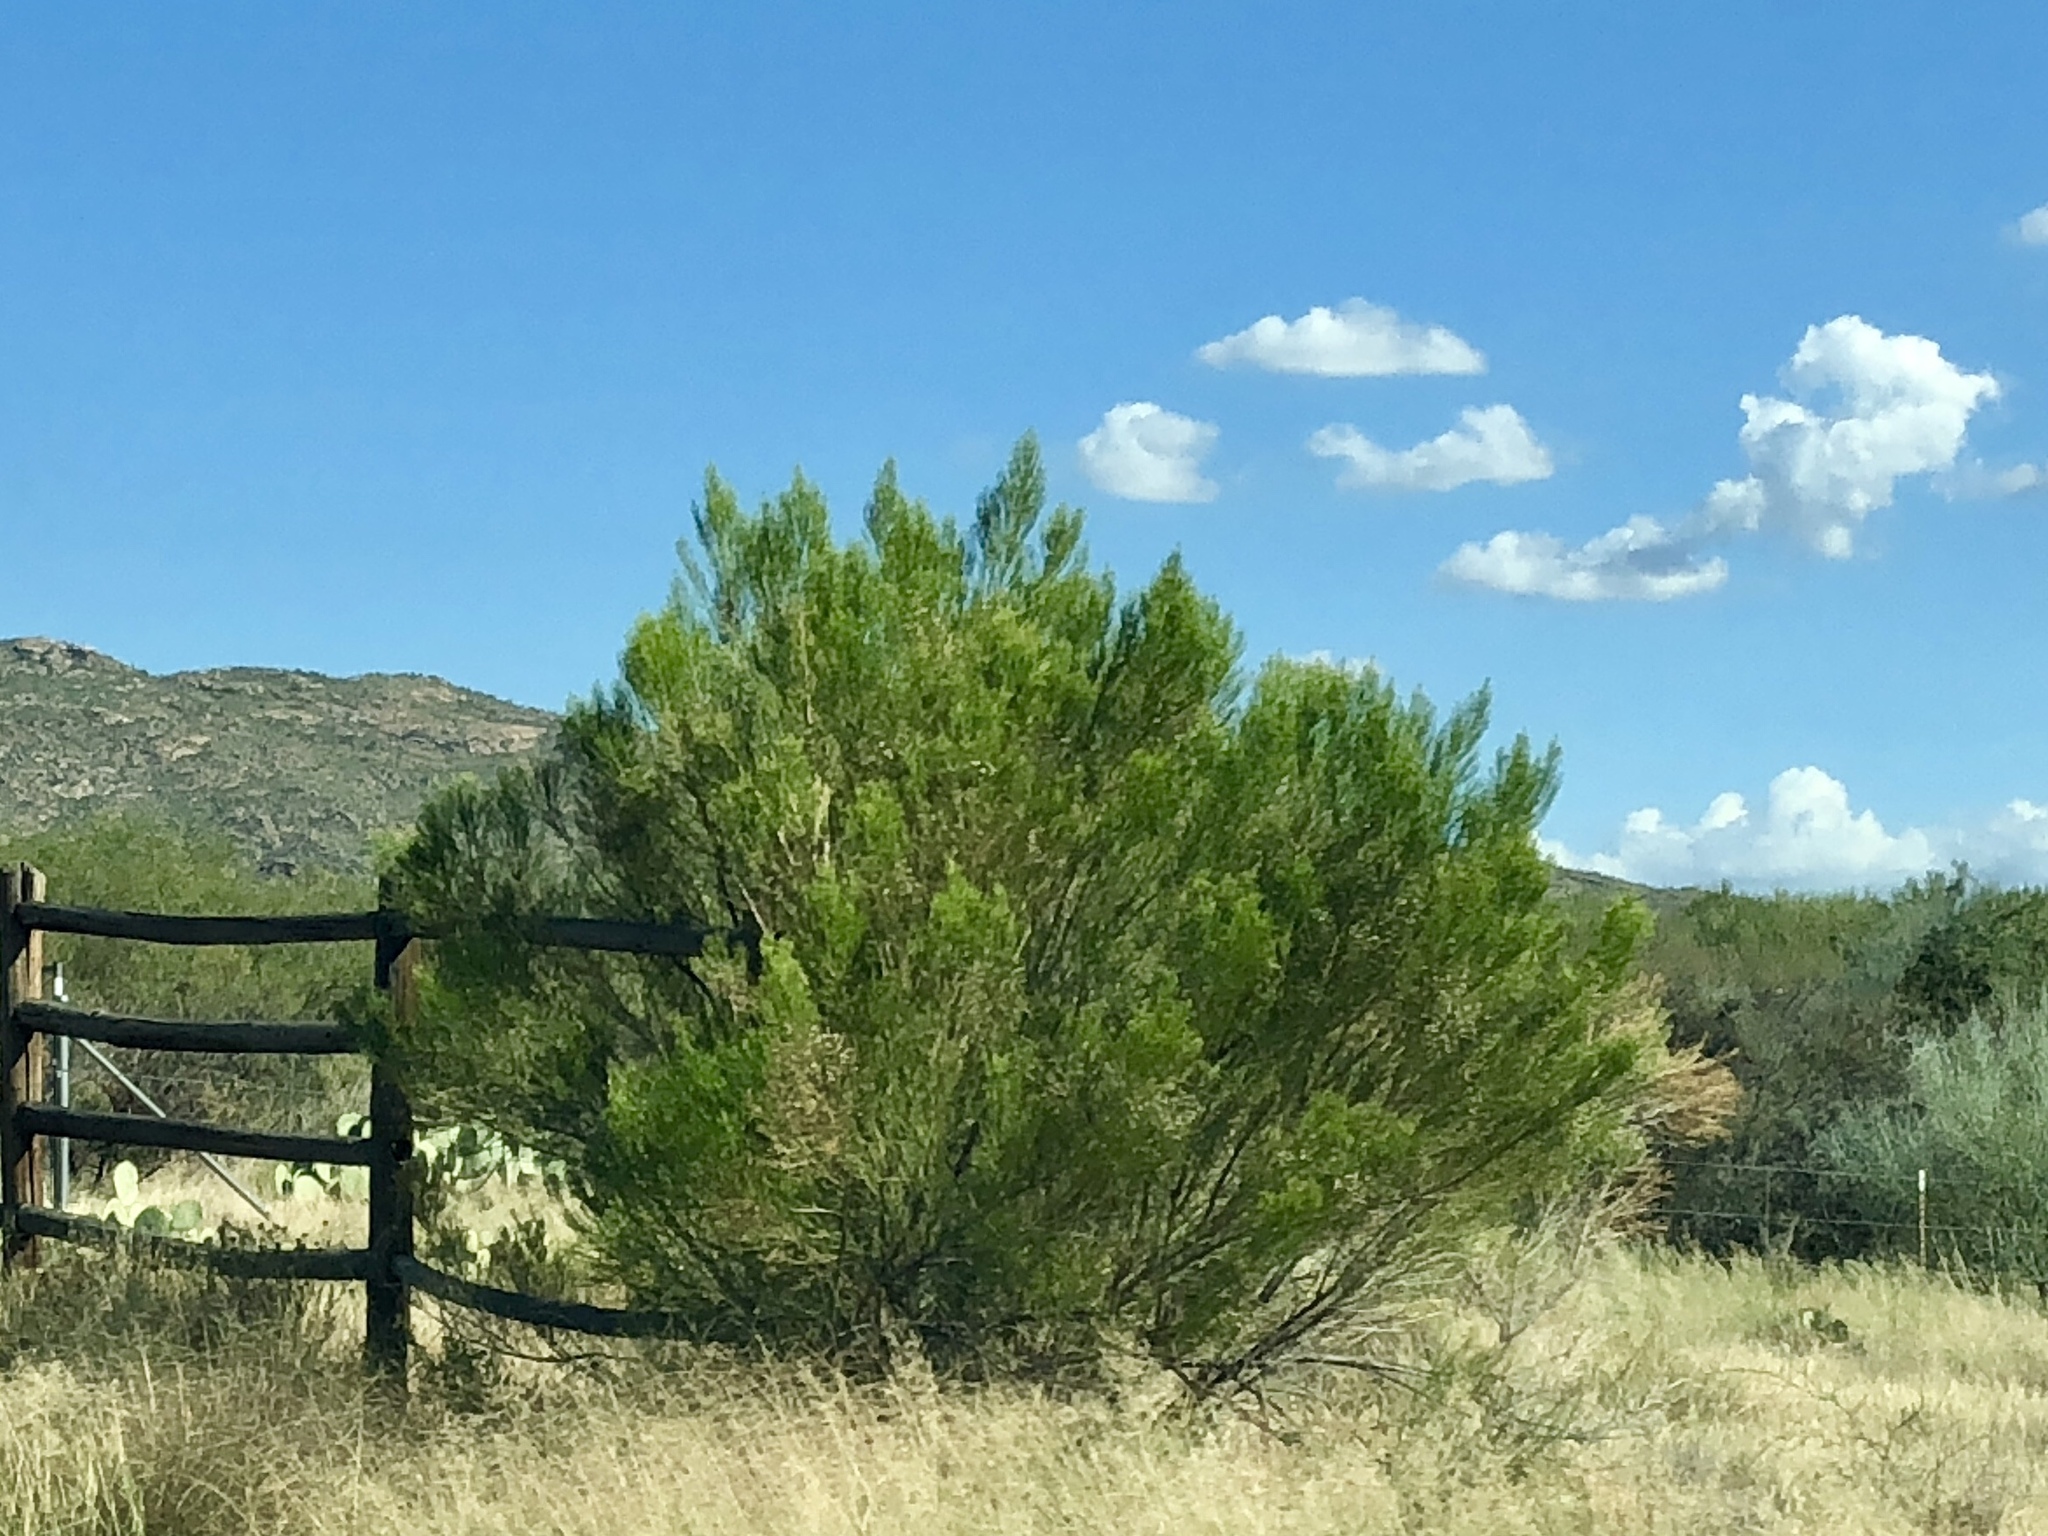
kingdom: Plantae
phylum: Tracheophyta
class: Magnoliopsida
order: Asterales
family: Asteraceae
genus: Baccharis
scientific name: Baccharis sarothroides
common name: Desert-broom
